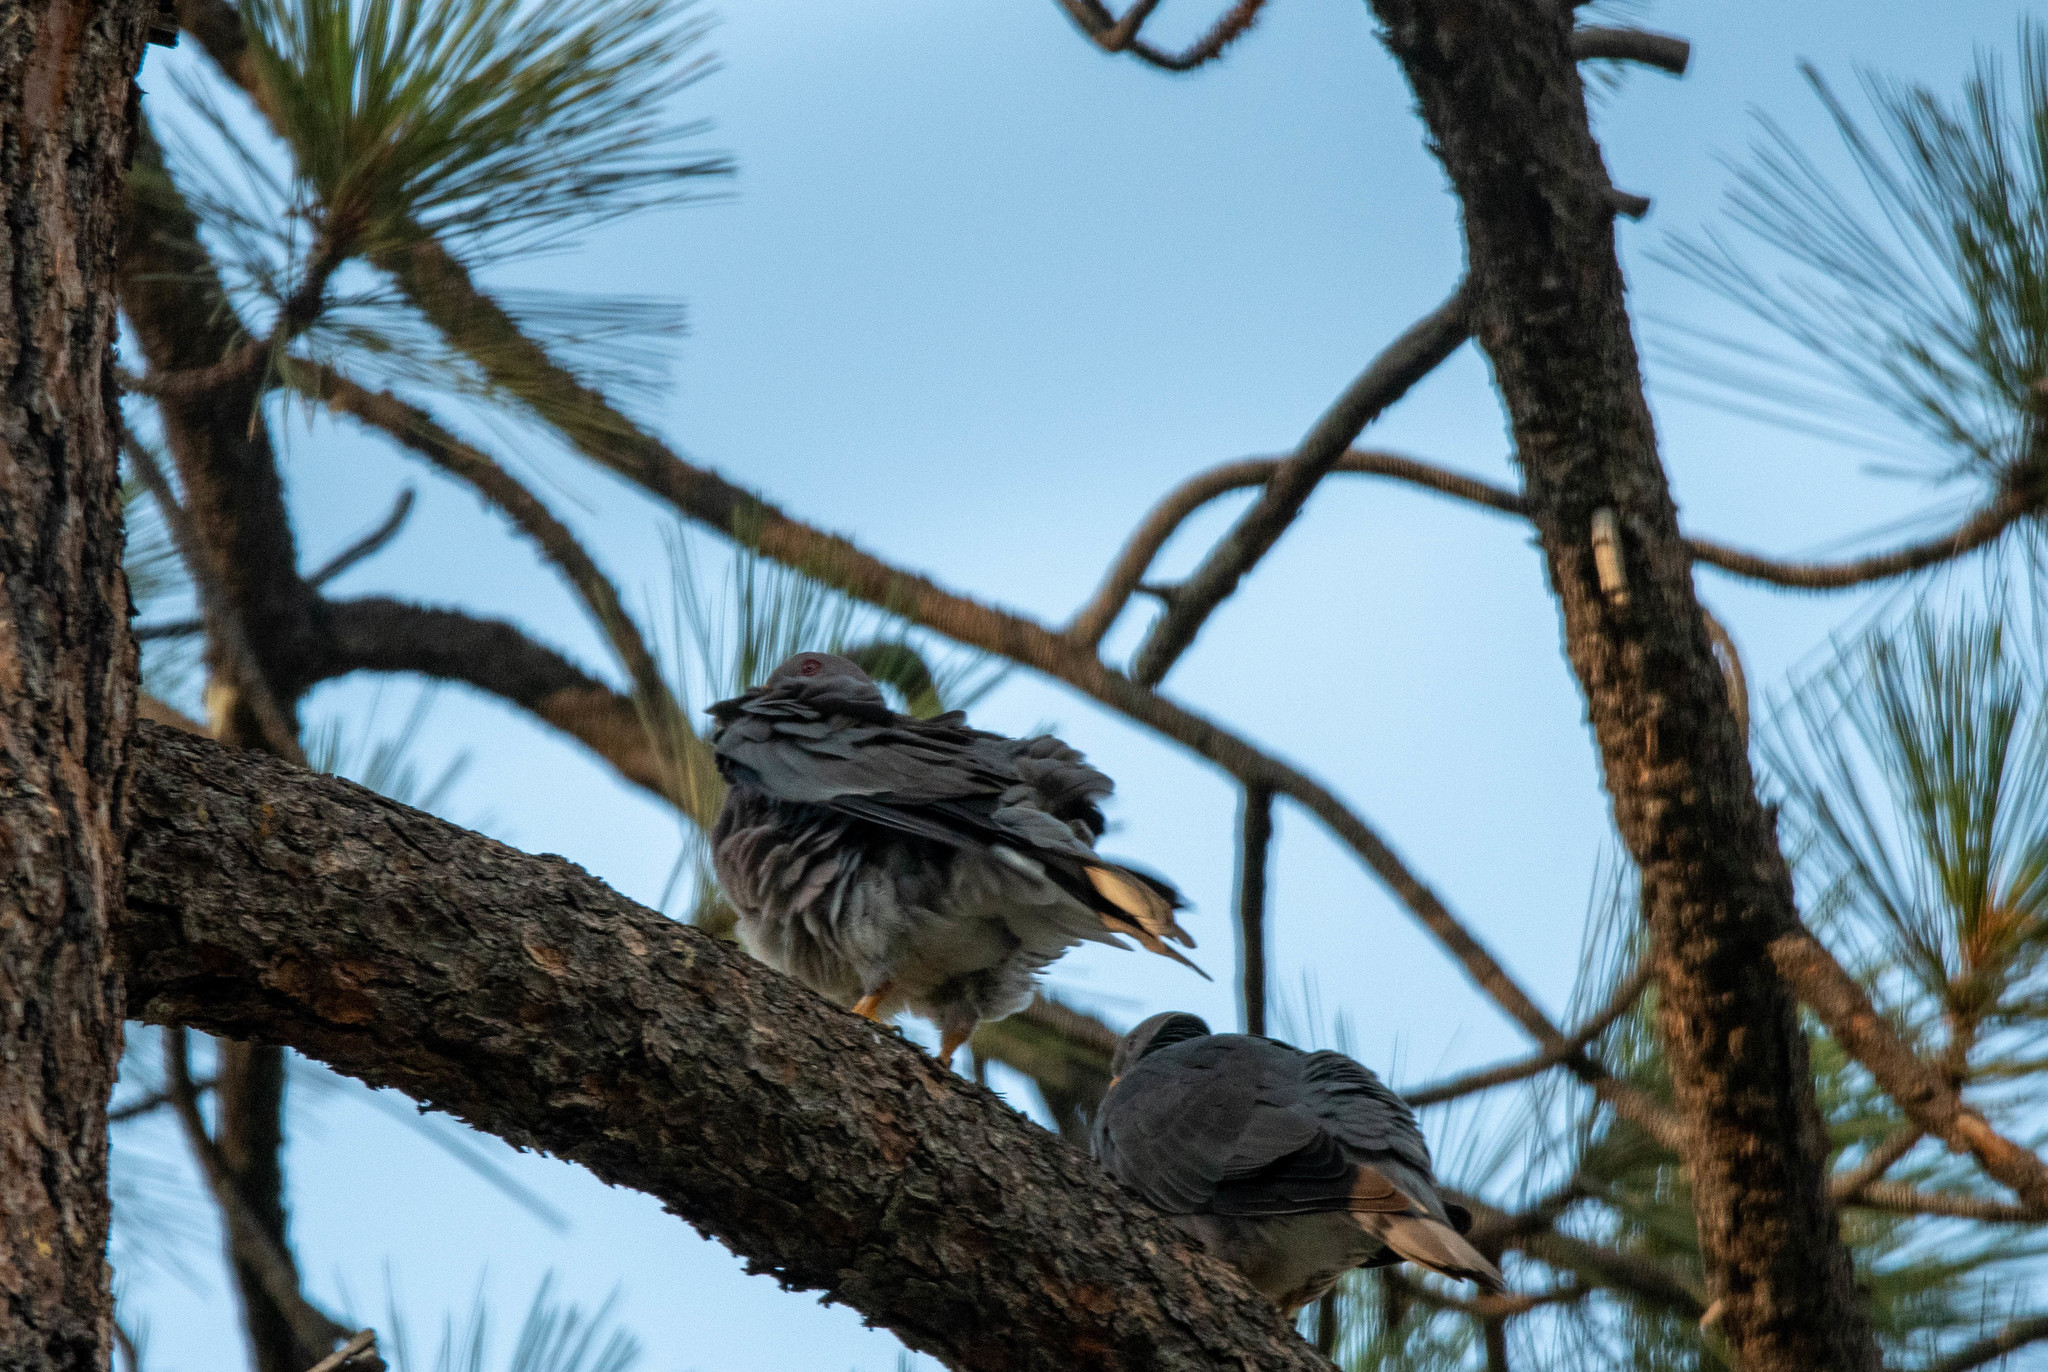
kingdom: Animalia
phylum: Chordata
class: Aves
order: Columbiformes
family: Columbidae
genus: Patagioenas
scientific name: Patagioenas fasciata
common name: Band-tailed pigeon
